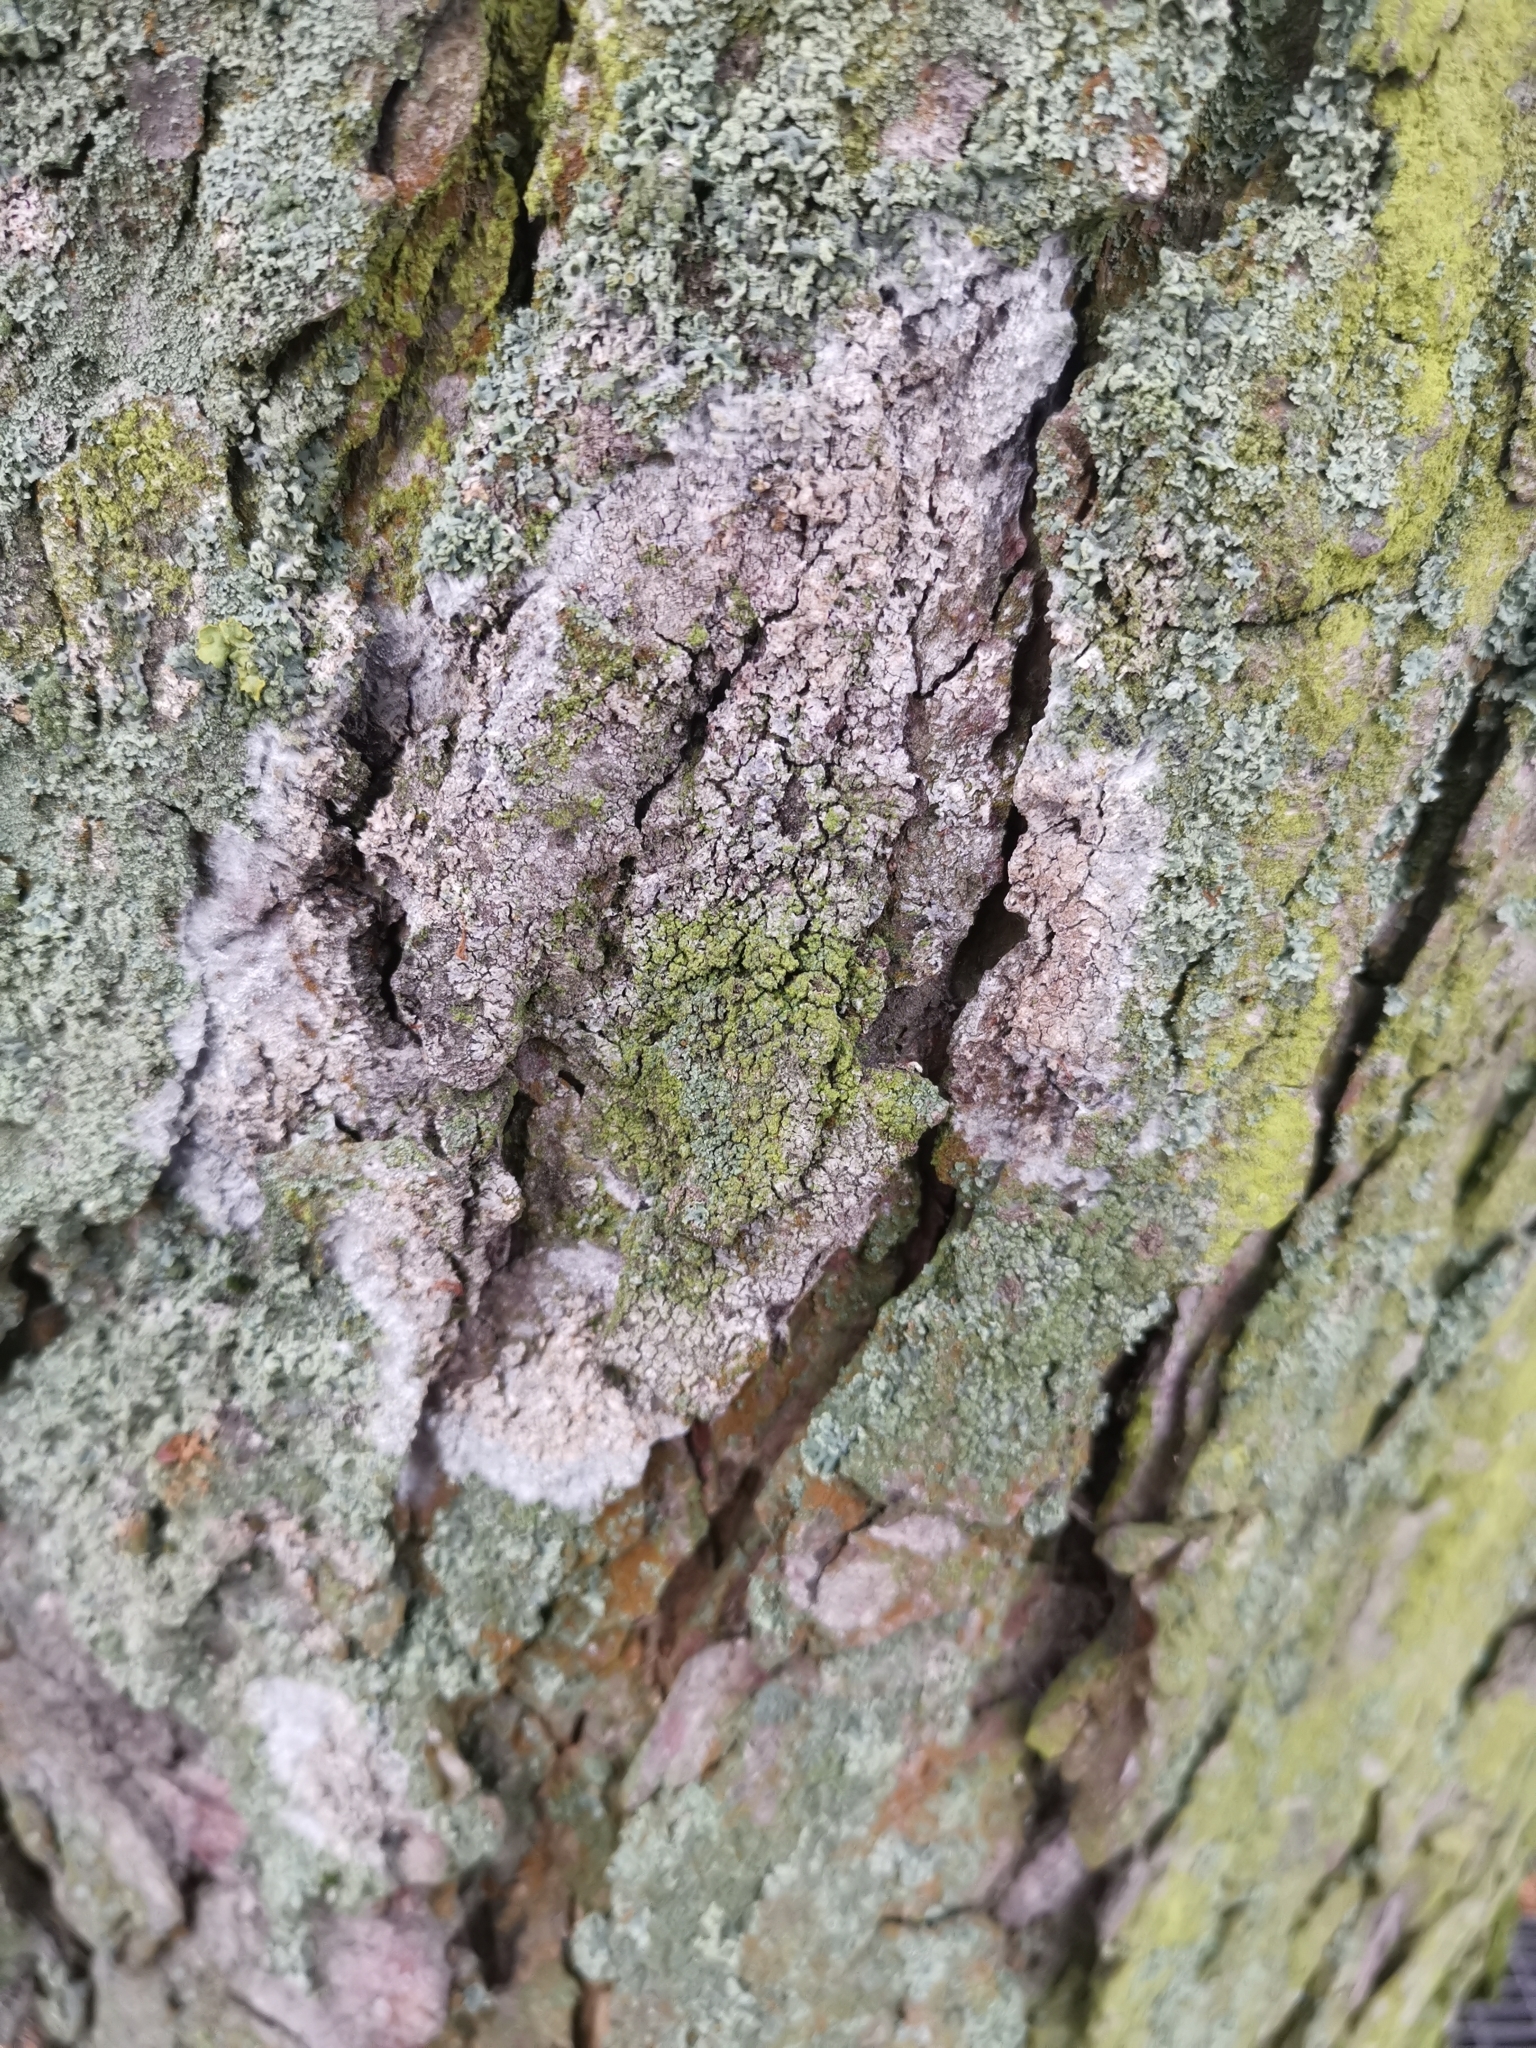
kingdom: Fungi
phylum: Basidiomycota
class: Agaricomycetes
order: Atheliales
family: Atheliaceae
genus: Athelia
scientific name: Athelia arachnoidea
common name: Candelabra duster
